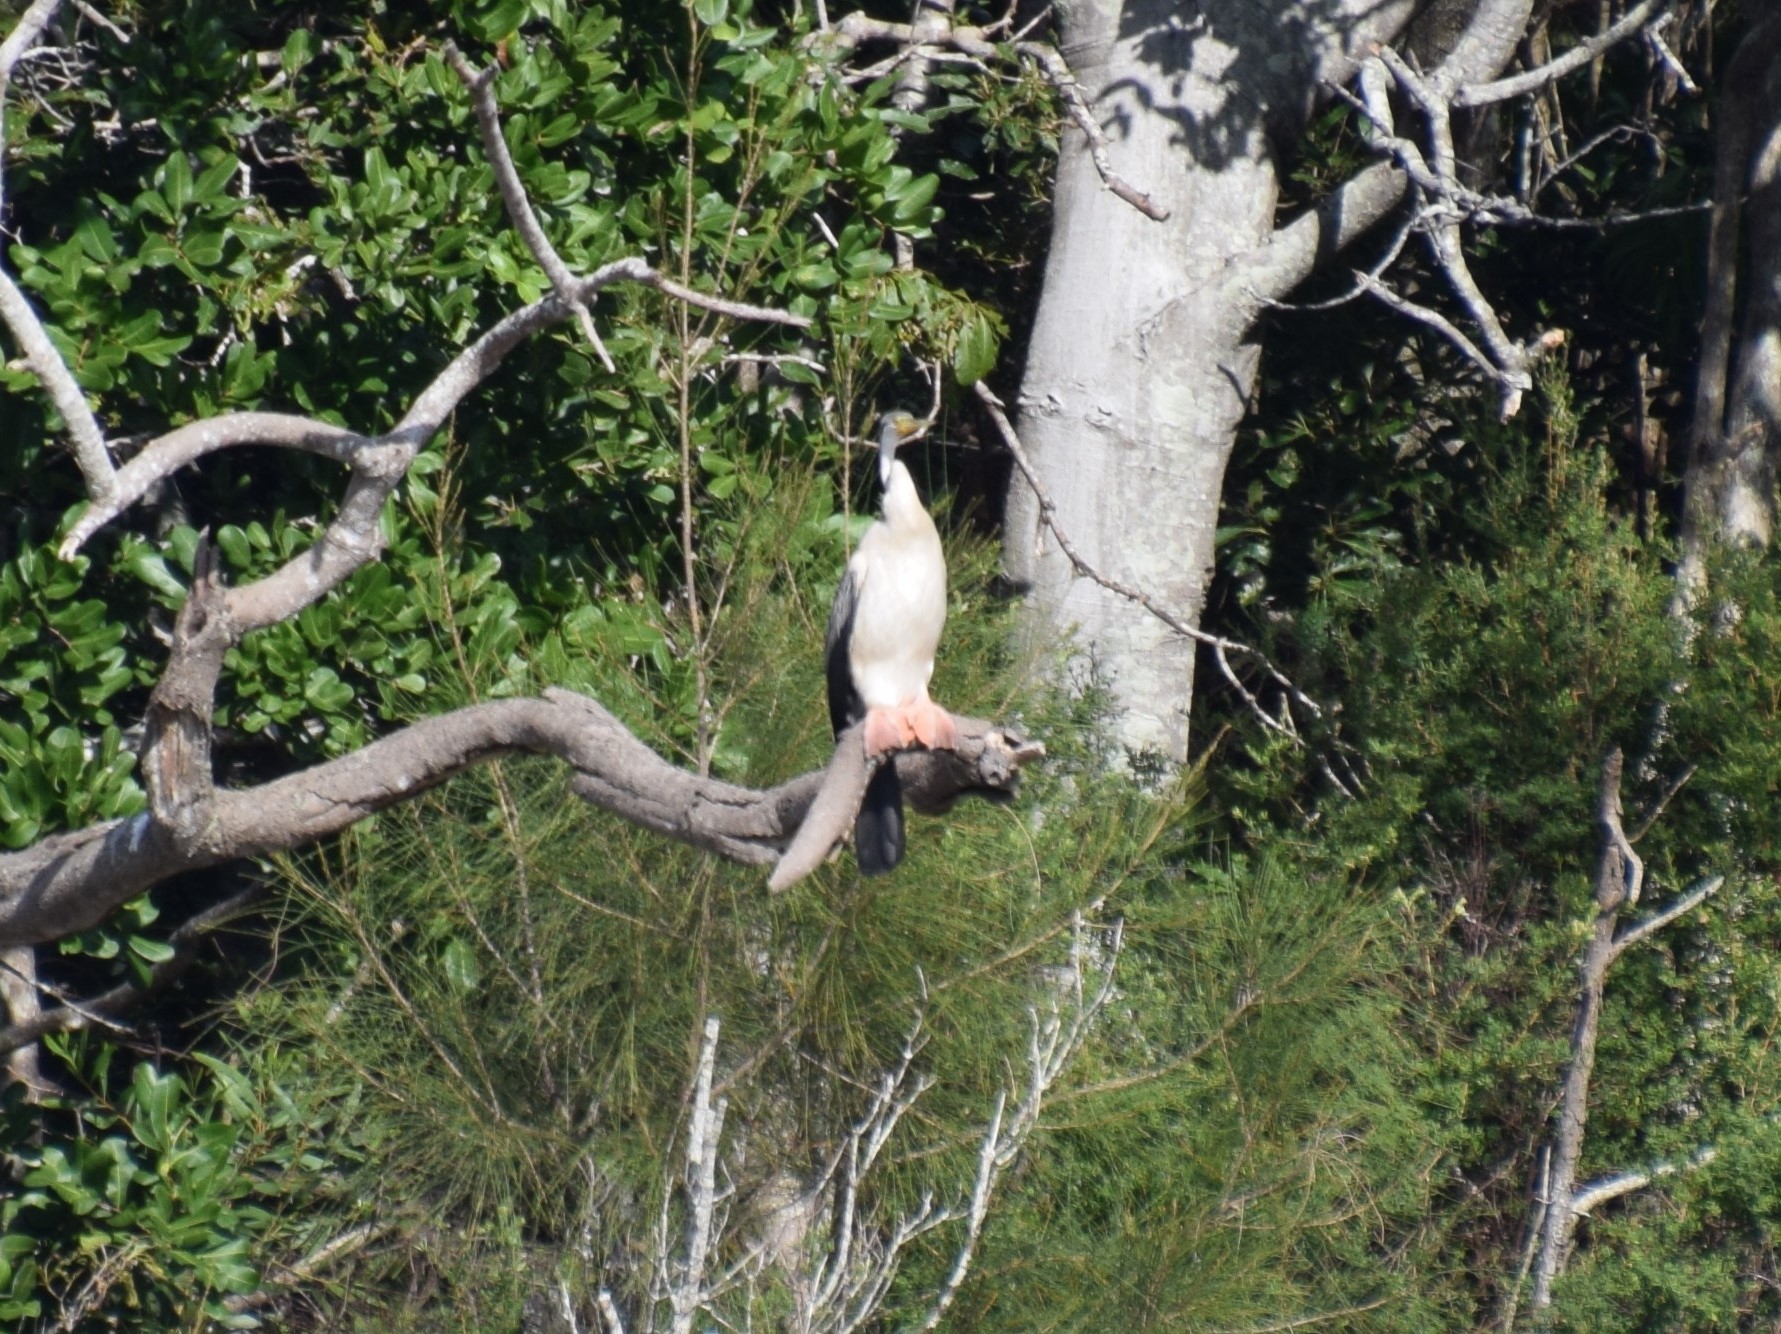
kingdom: Animalia
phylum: Chordata
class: Aves
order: Suliformes
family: Anhingidae
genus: Anhinga
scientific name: Anhinga novaehollandiae
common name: Australasian darter
